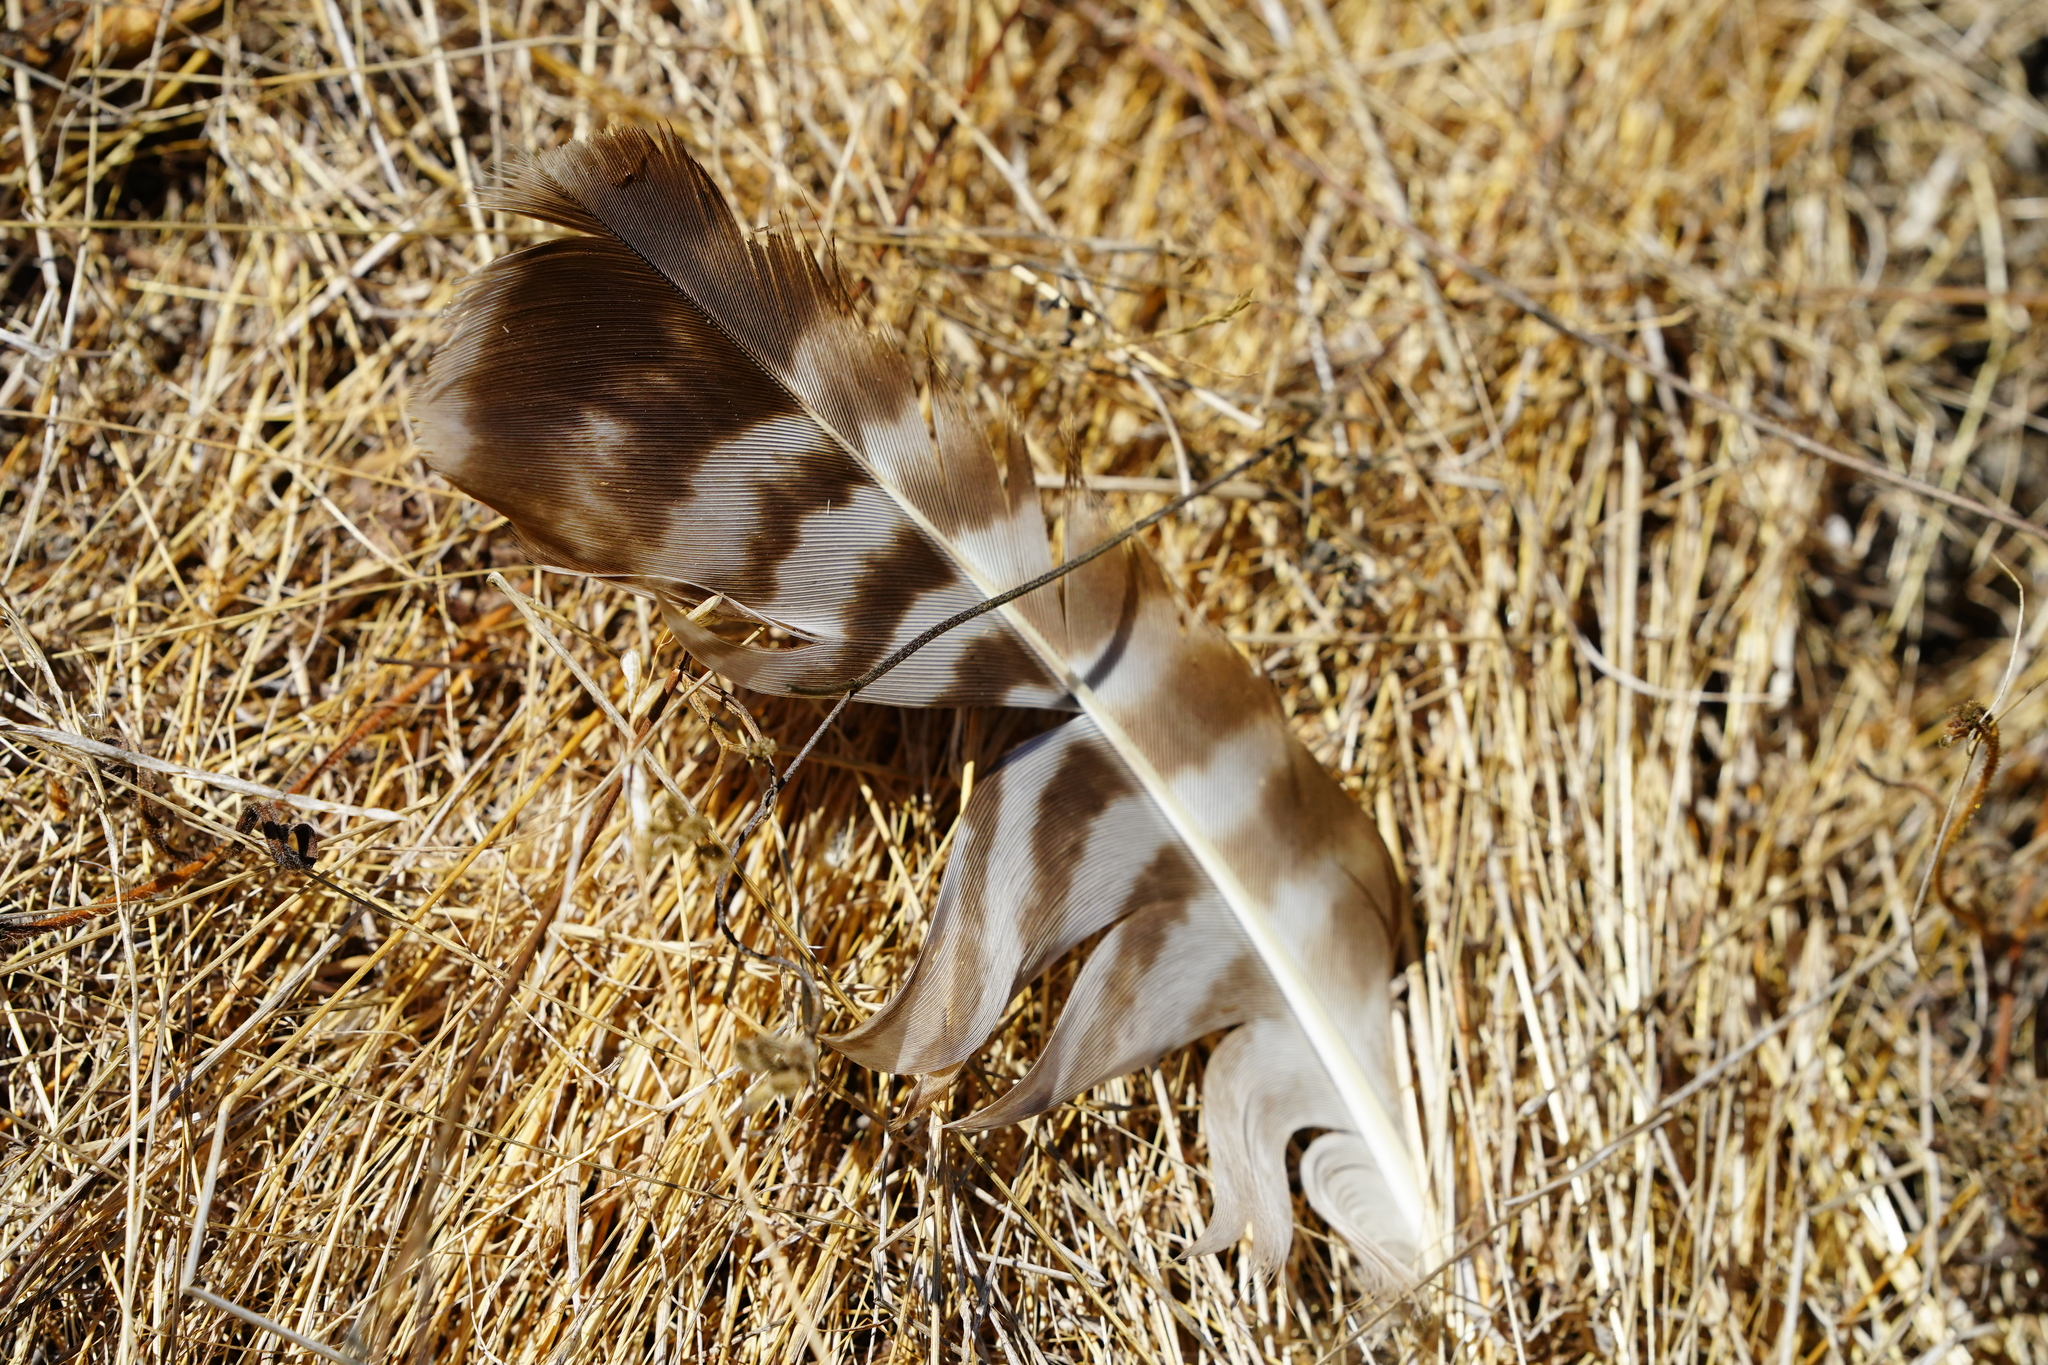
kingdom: Animalia
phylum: Chordata
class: Aves
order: Accipitriformes
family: Accipitridae
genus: Buteo
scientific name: Buteo jamaicensis
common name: Red-tailed hawk
